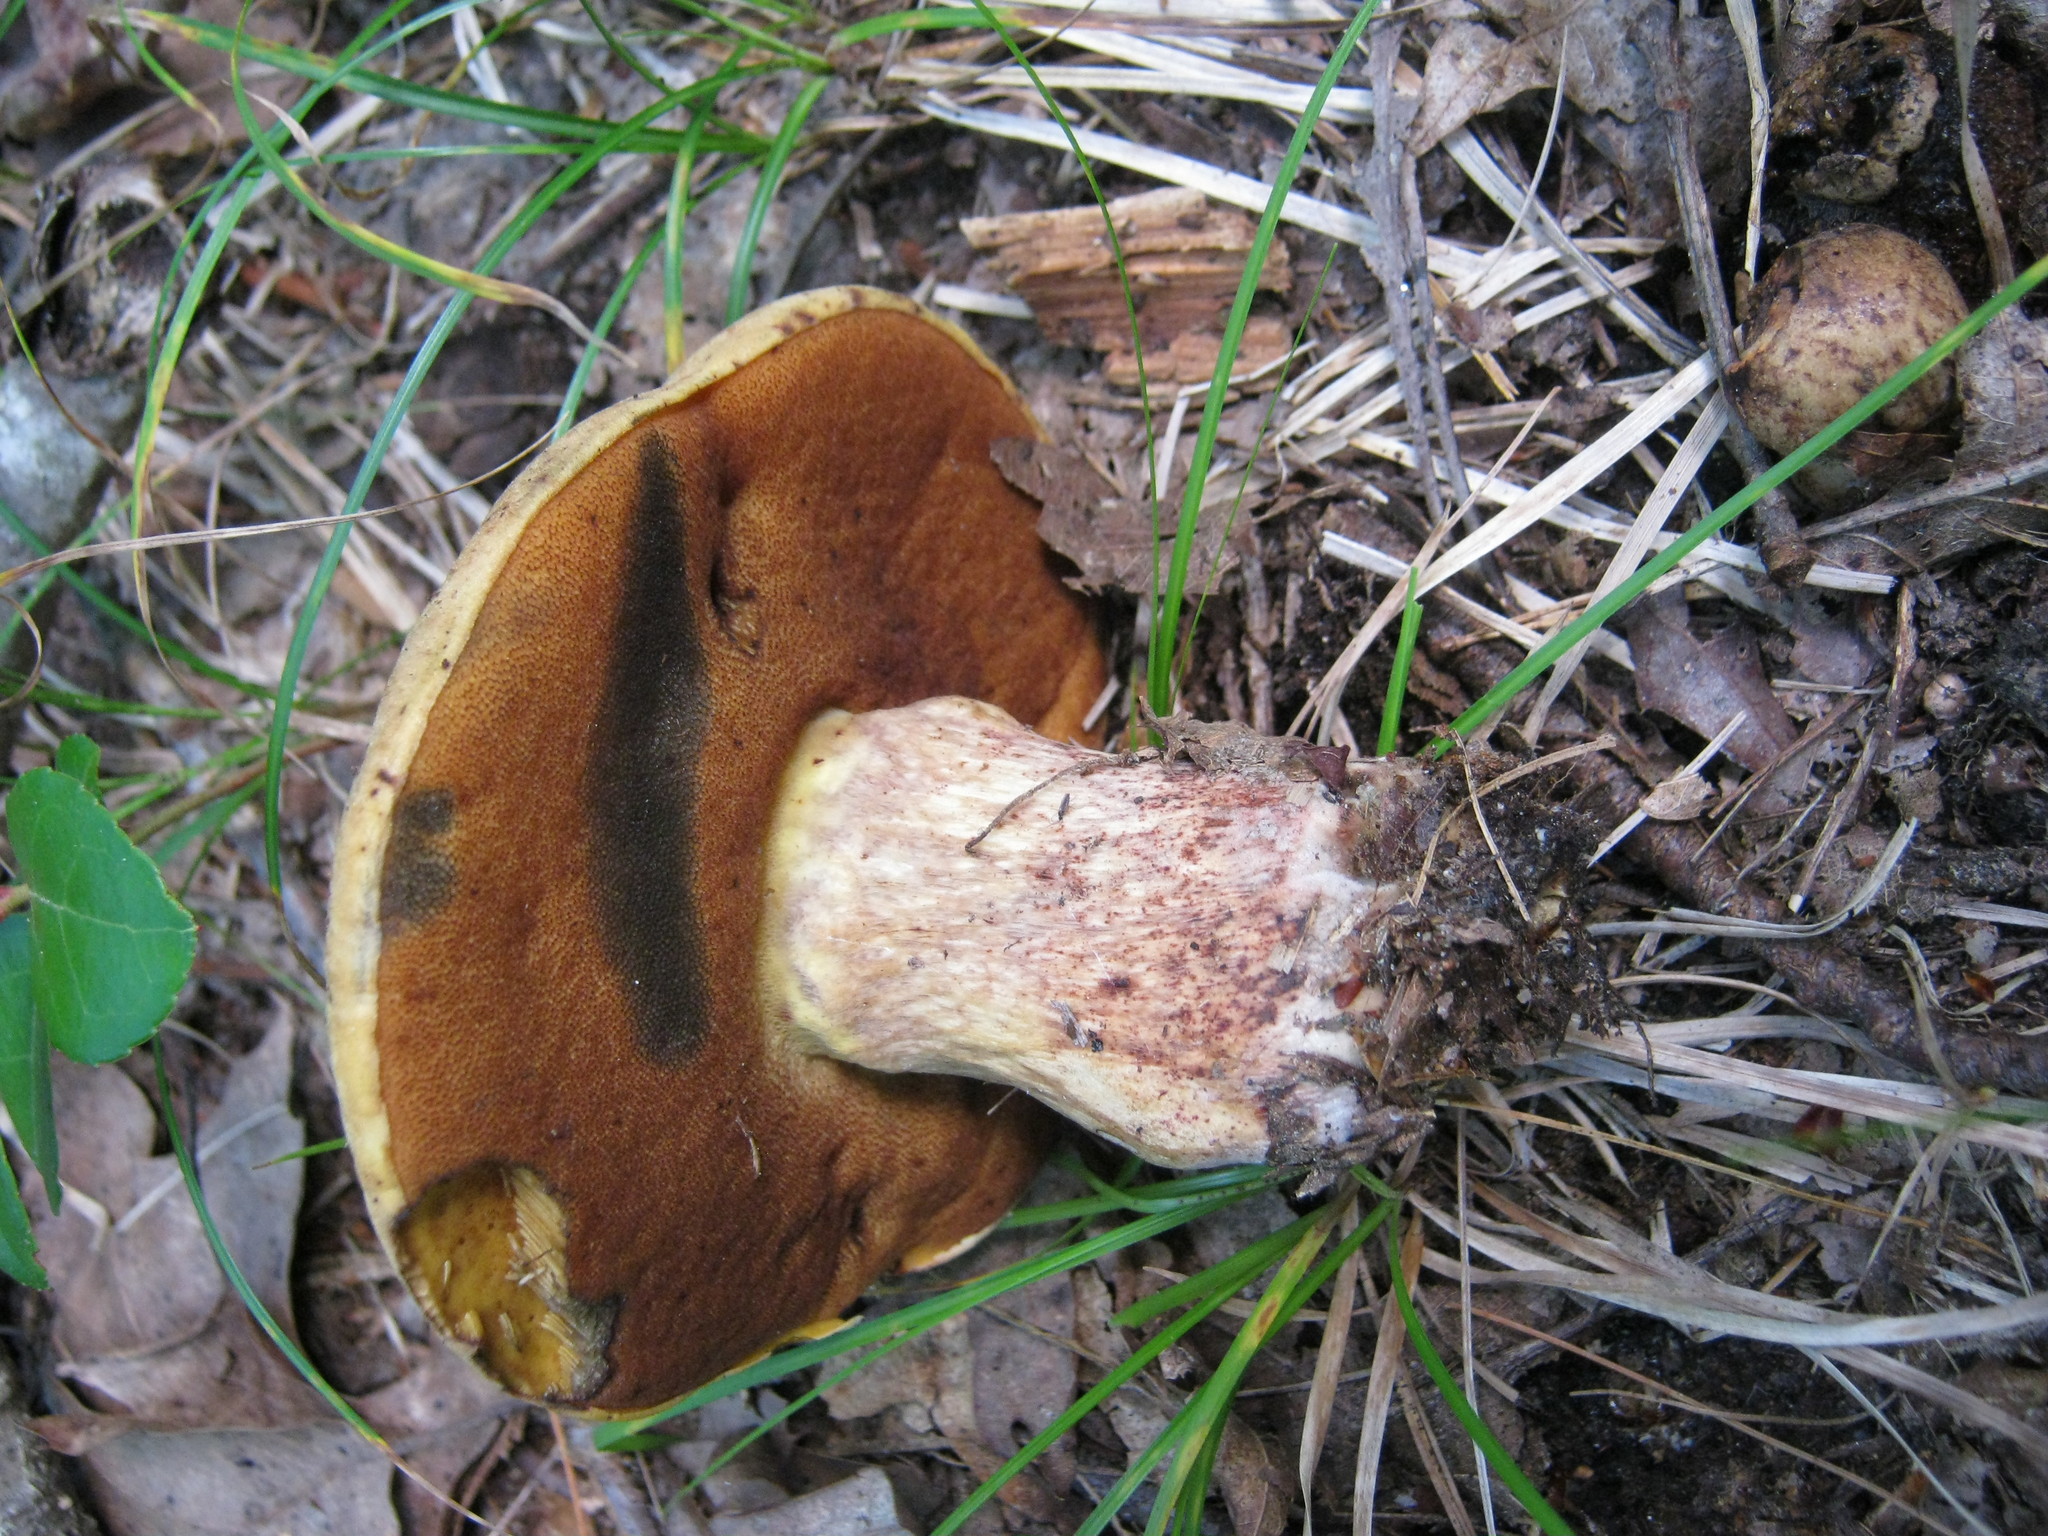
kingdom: Fungi
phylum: Basidiomycota
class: Agaricomycetes
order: Boletales
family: Boletaceae
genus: Boletus
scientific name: Boletus subvelutipes
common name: Red-mouth bolete
